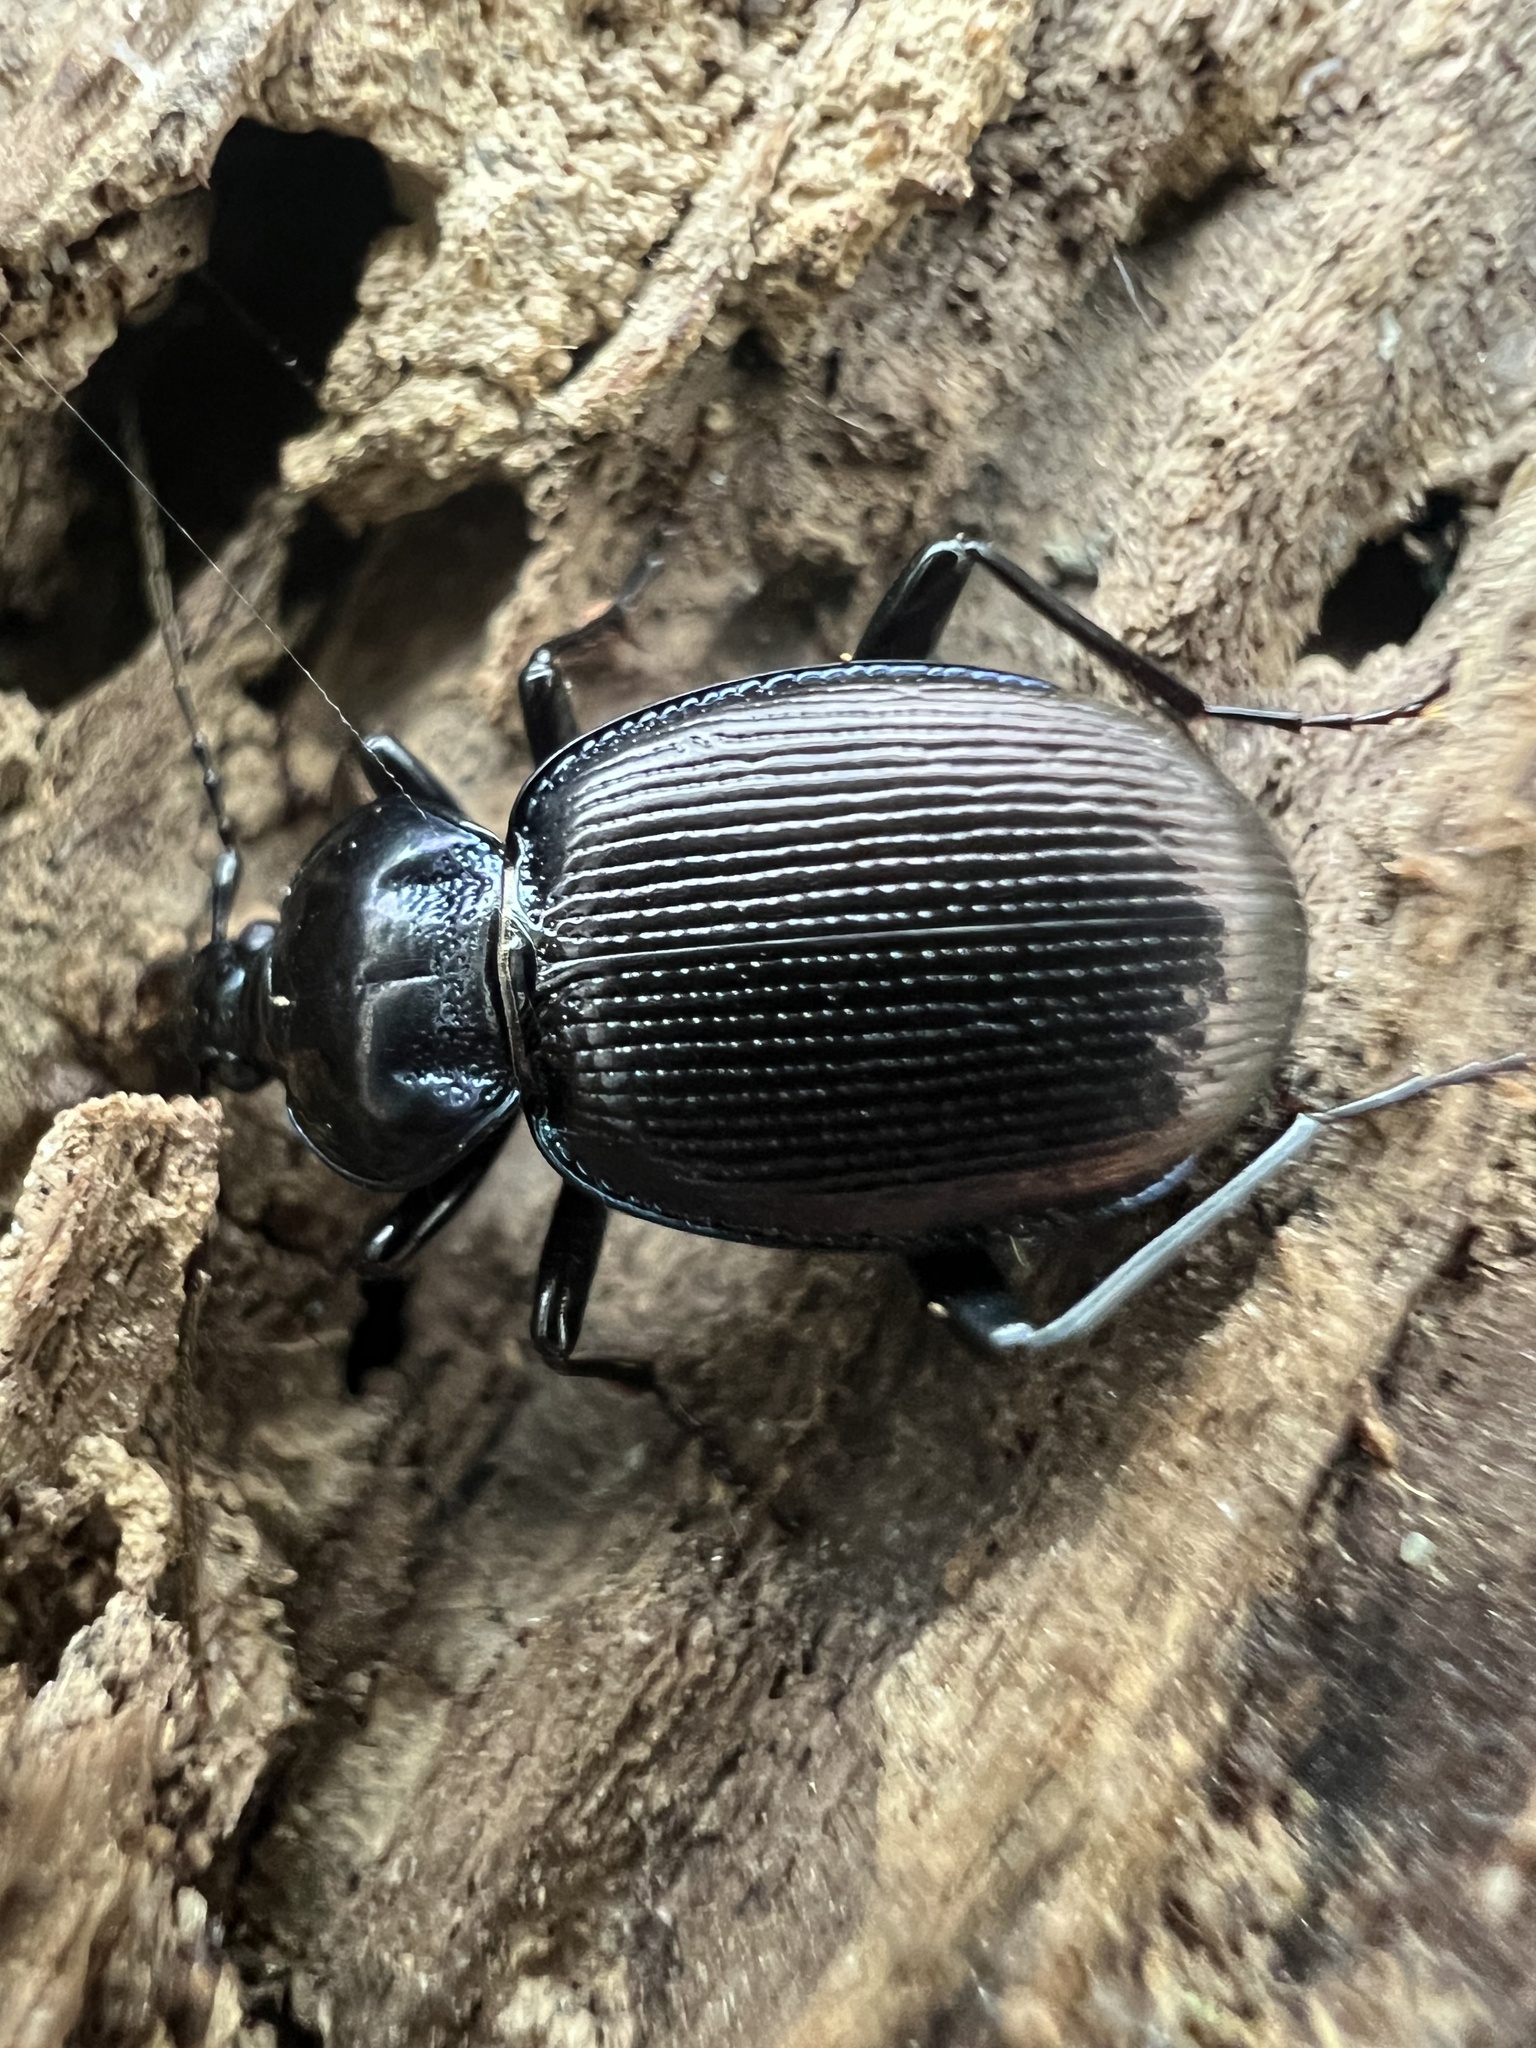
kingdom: Animalia
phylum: Arthropoda
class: Insecta
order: Coleoptera
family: Carabidae
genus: Sphaeroderus
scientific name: Sphaeroderus stenostomus
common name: Small snail-eating ground beetle
